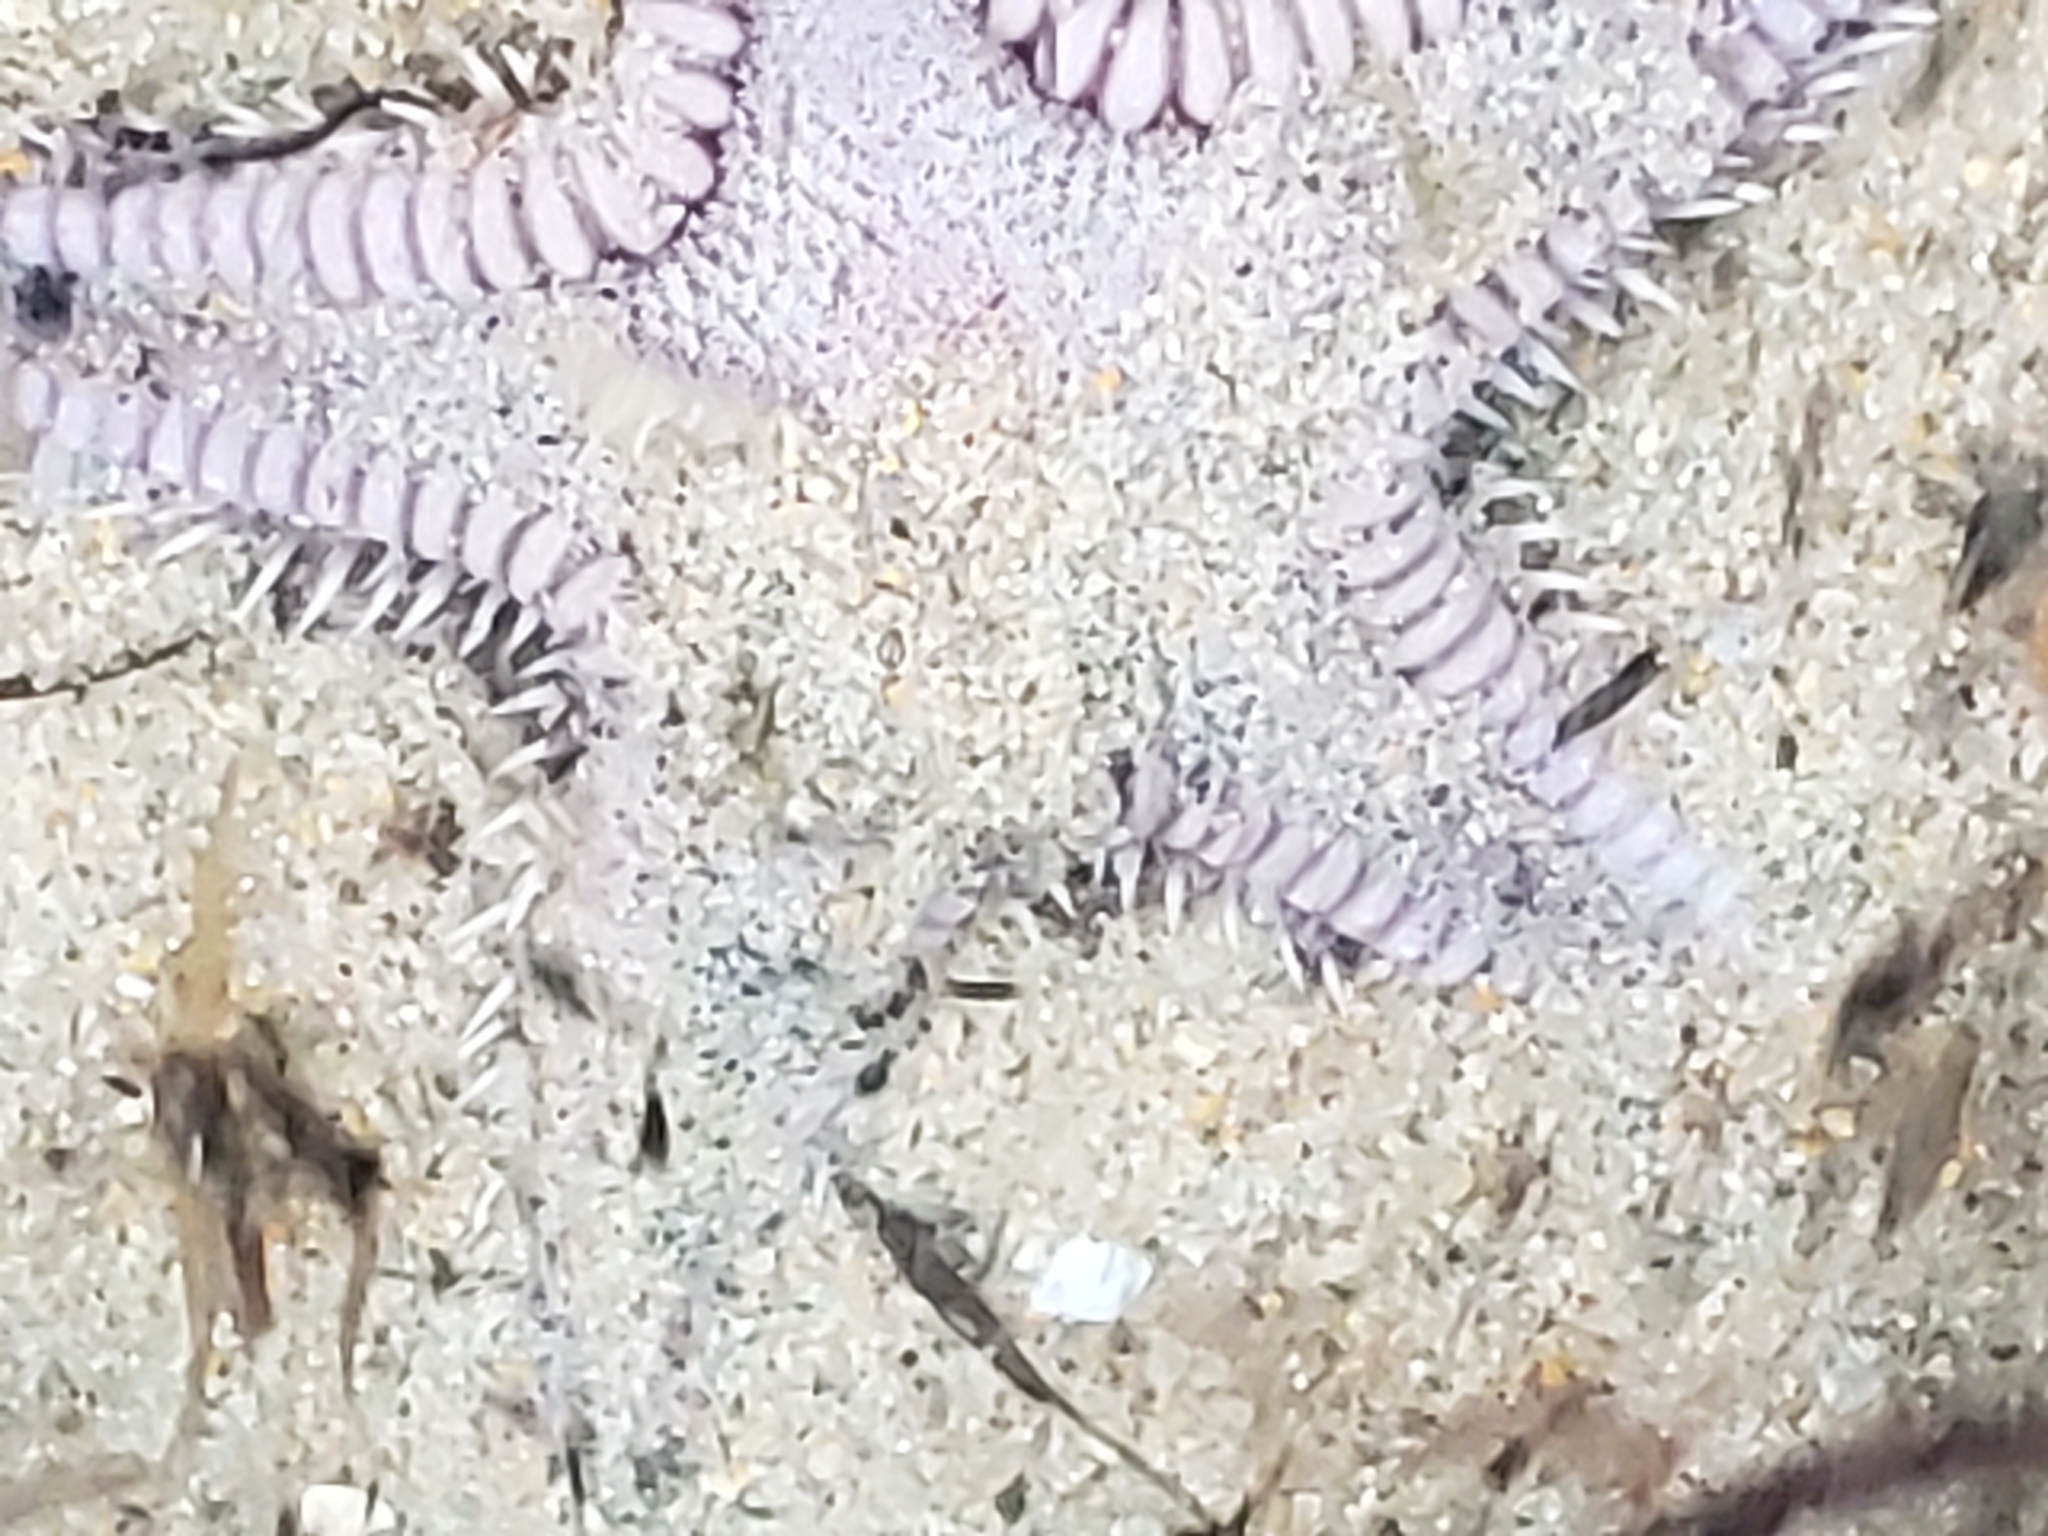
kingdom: Animalia
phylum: Echinodermata
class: Asteroidea
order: Paxillosida
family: Astropectinidae
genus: Astropecten
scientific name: Astropecten verrilli de
